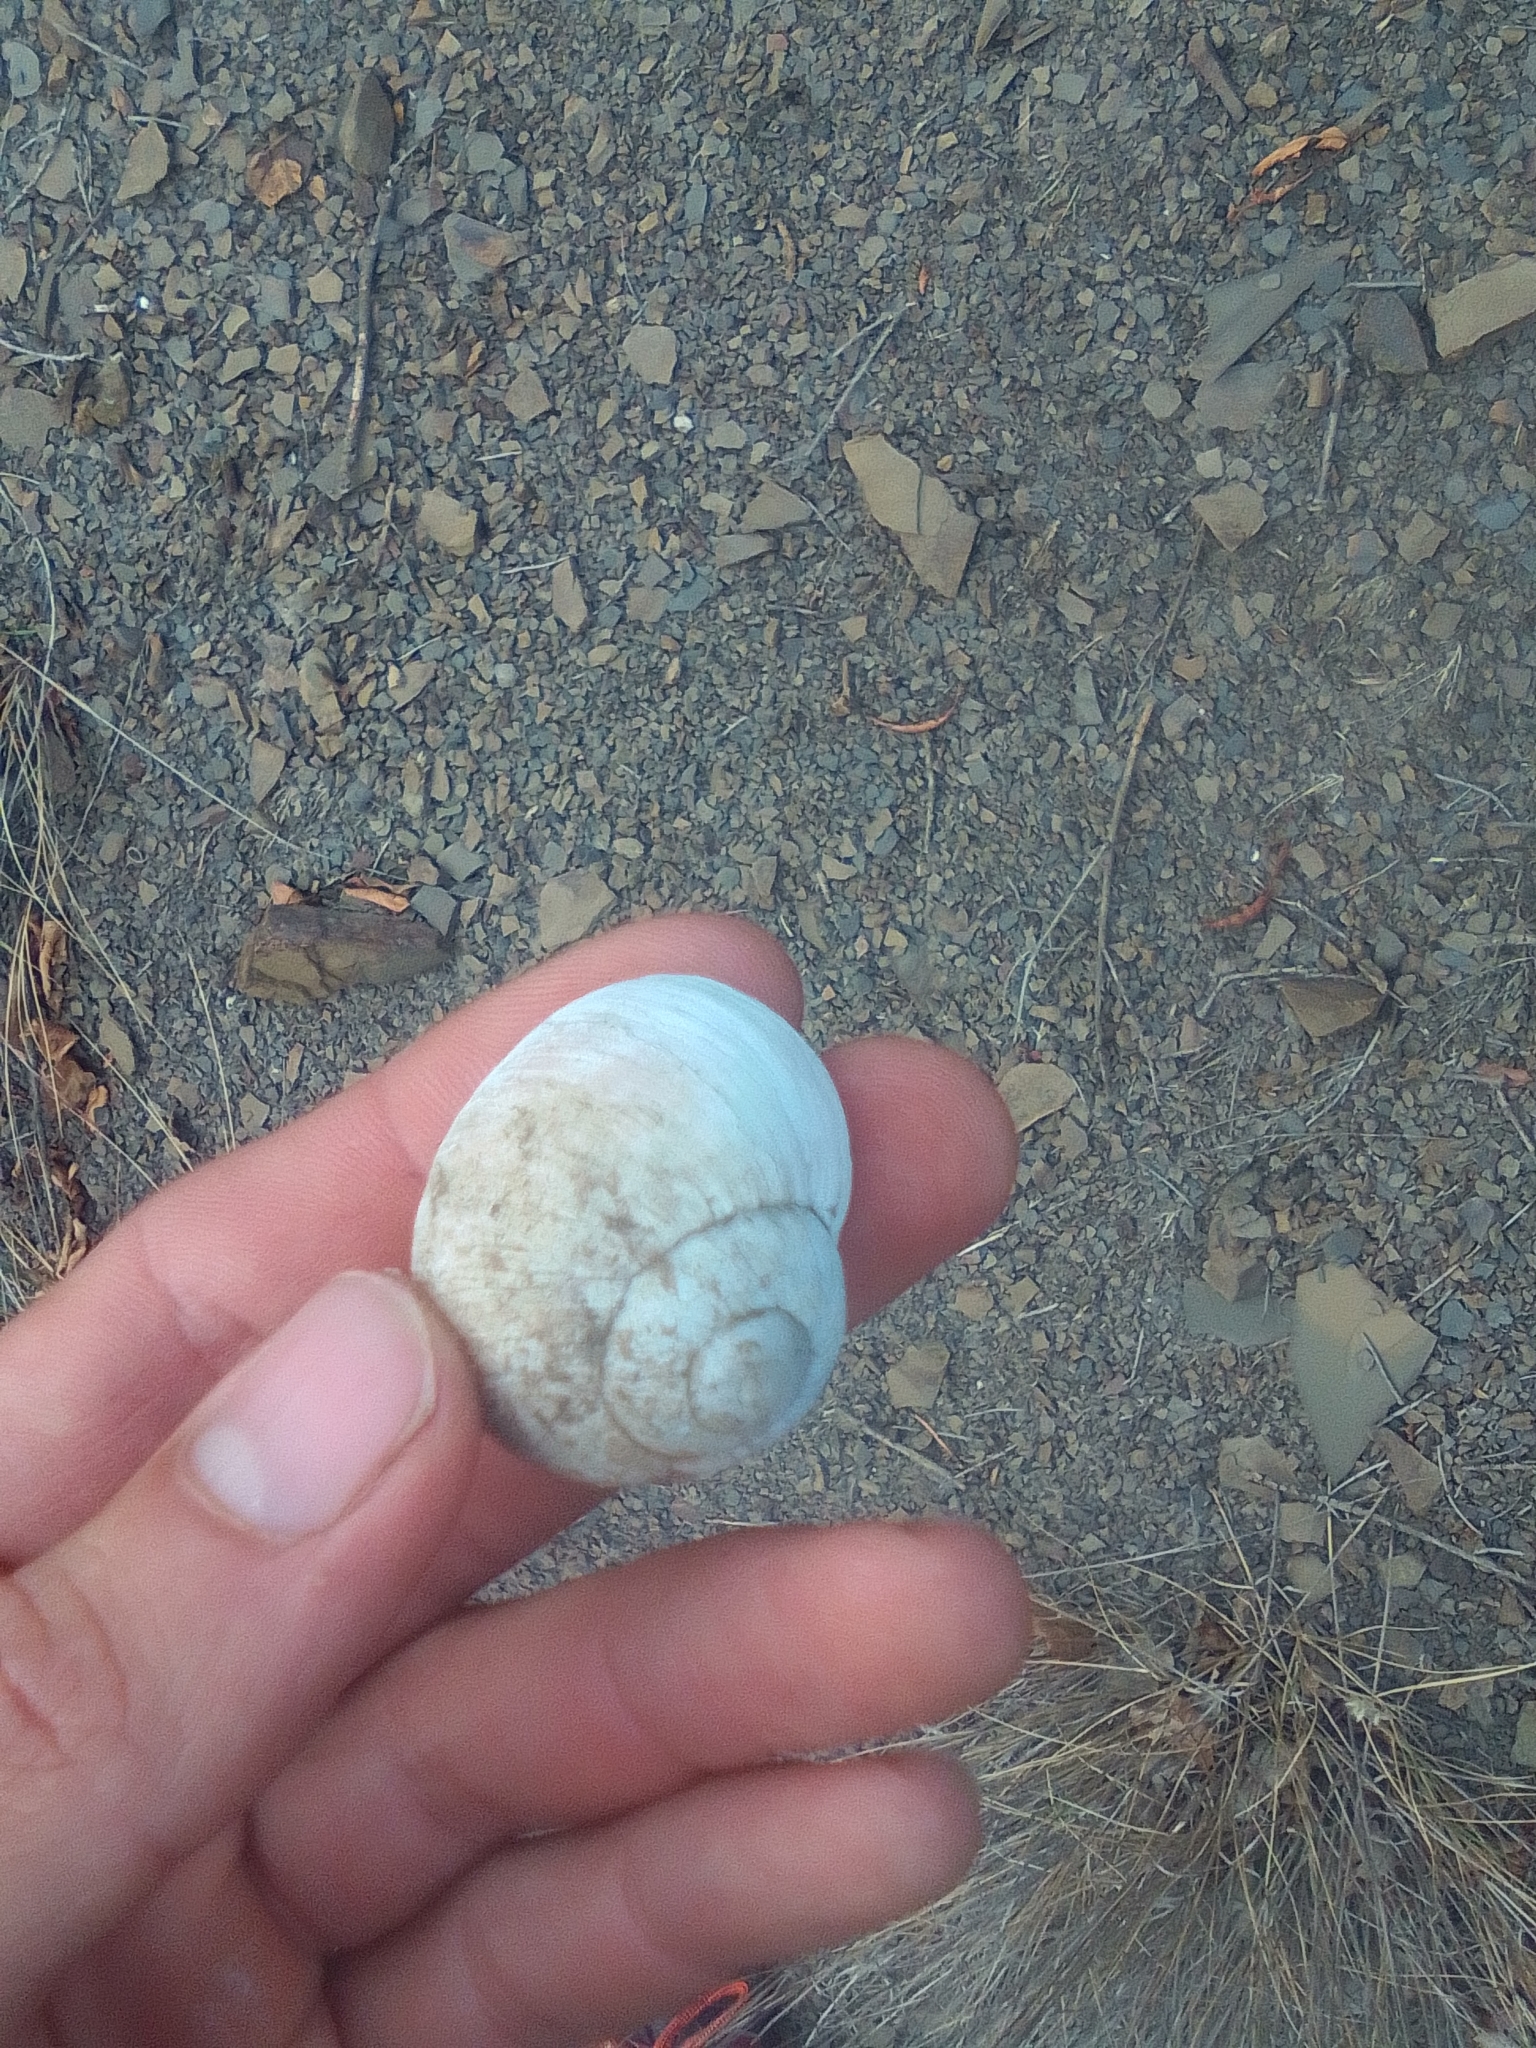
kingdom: Animalia
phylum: Mollusca
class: Gastropoda
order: Stylommatophora
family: Helicidae
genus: Helix
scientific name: Helix albescens
